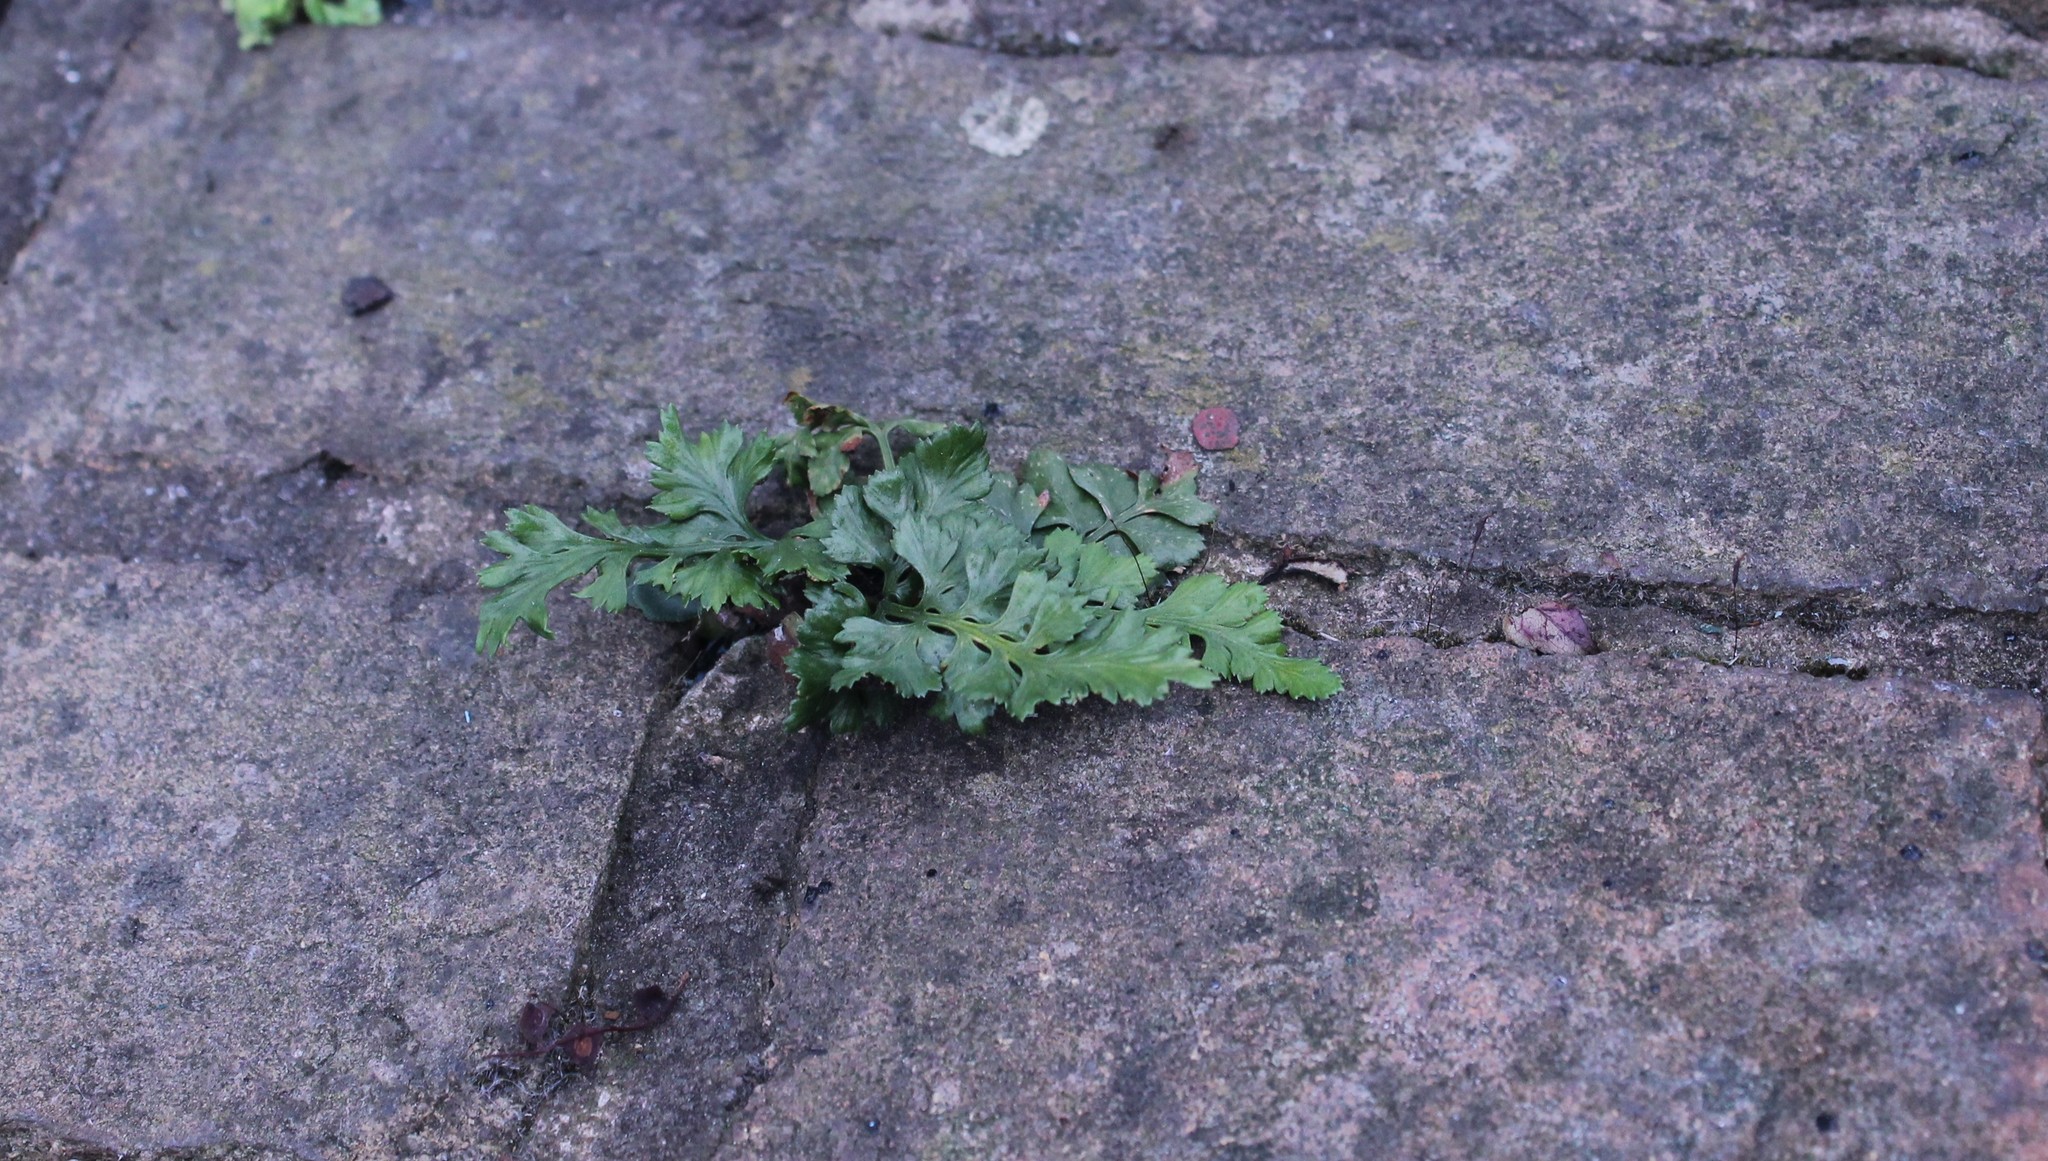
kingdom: Plantae
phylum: Tracheophyta
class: Polypodiopsida
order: Polypodiales
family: Aspleniaceae
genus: Asplenium
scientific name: Asplenium adiantum-nigrum
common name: Black spleenwort
